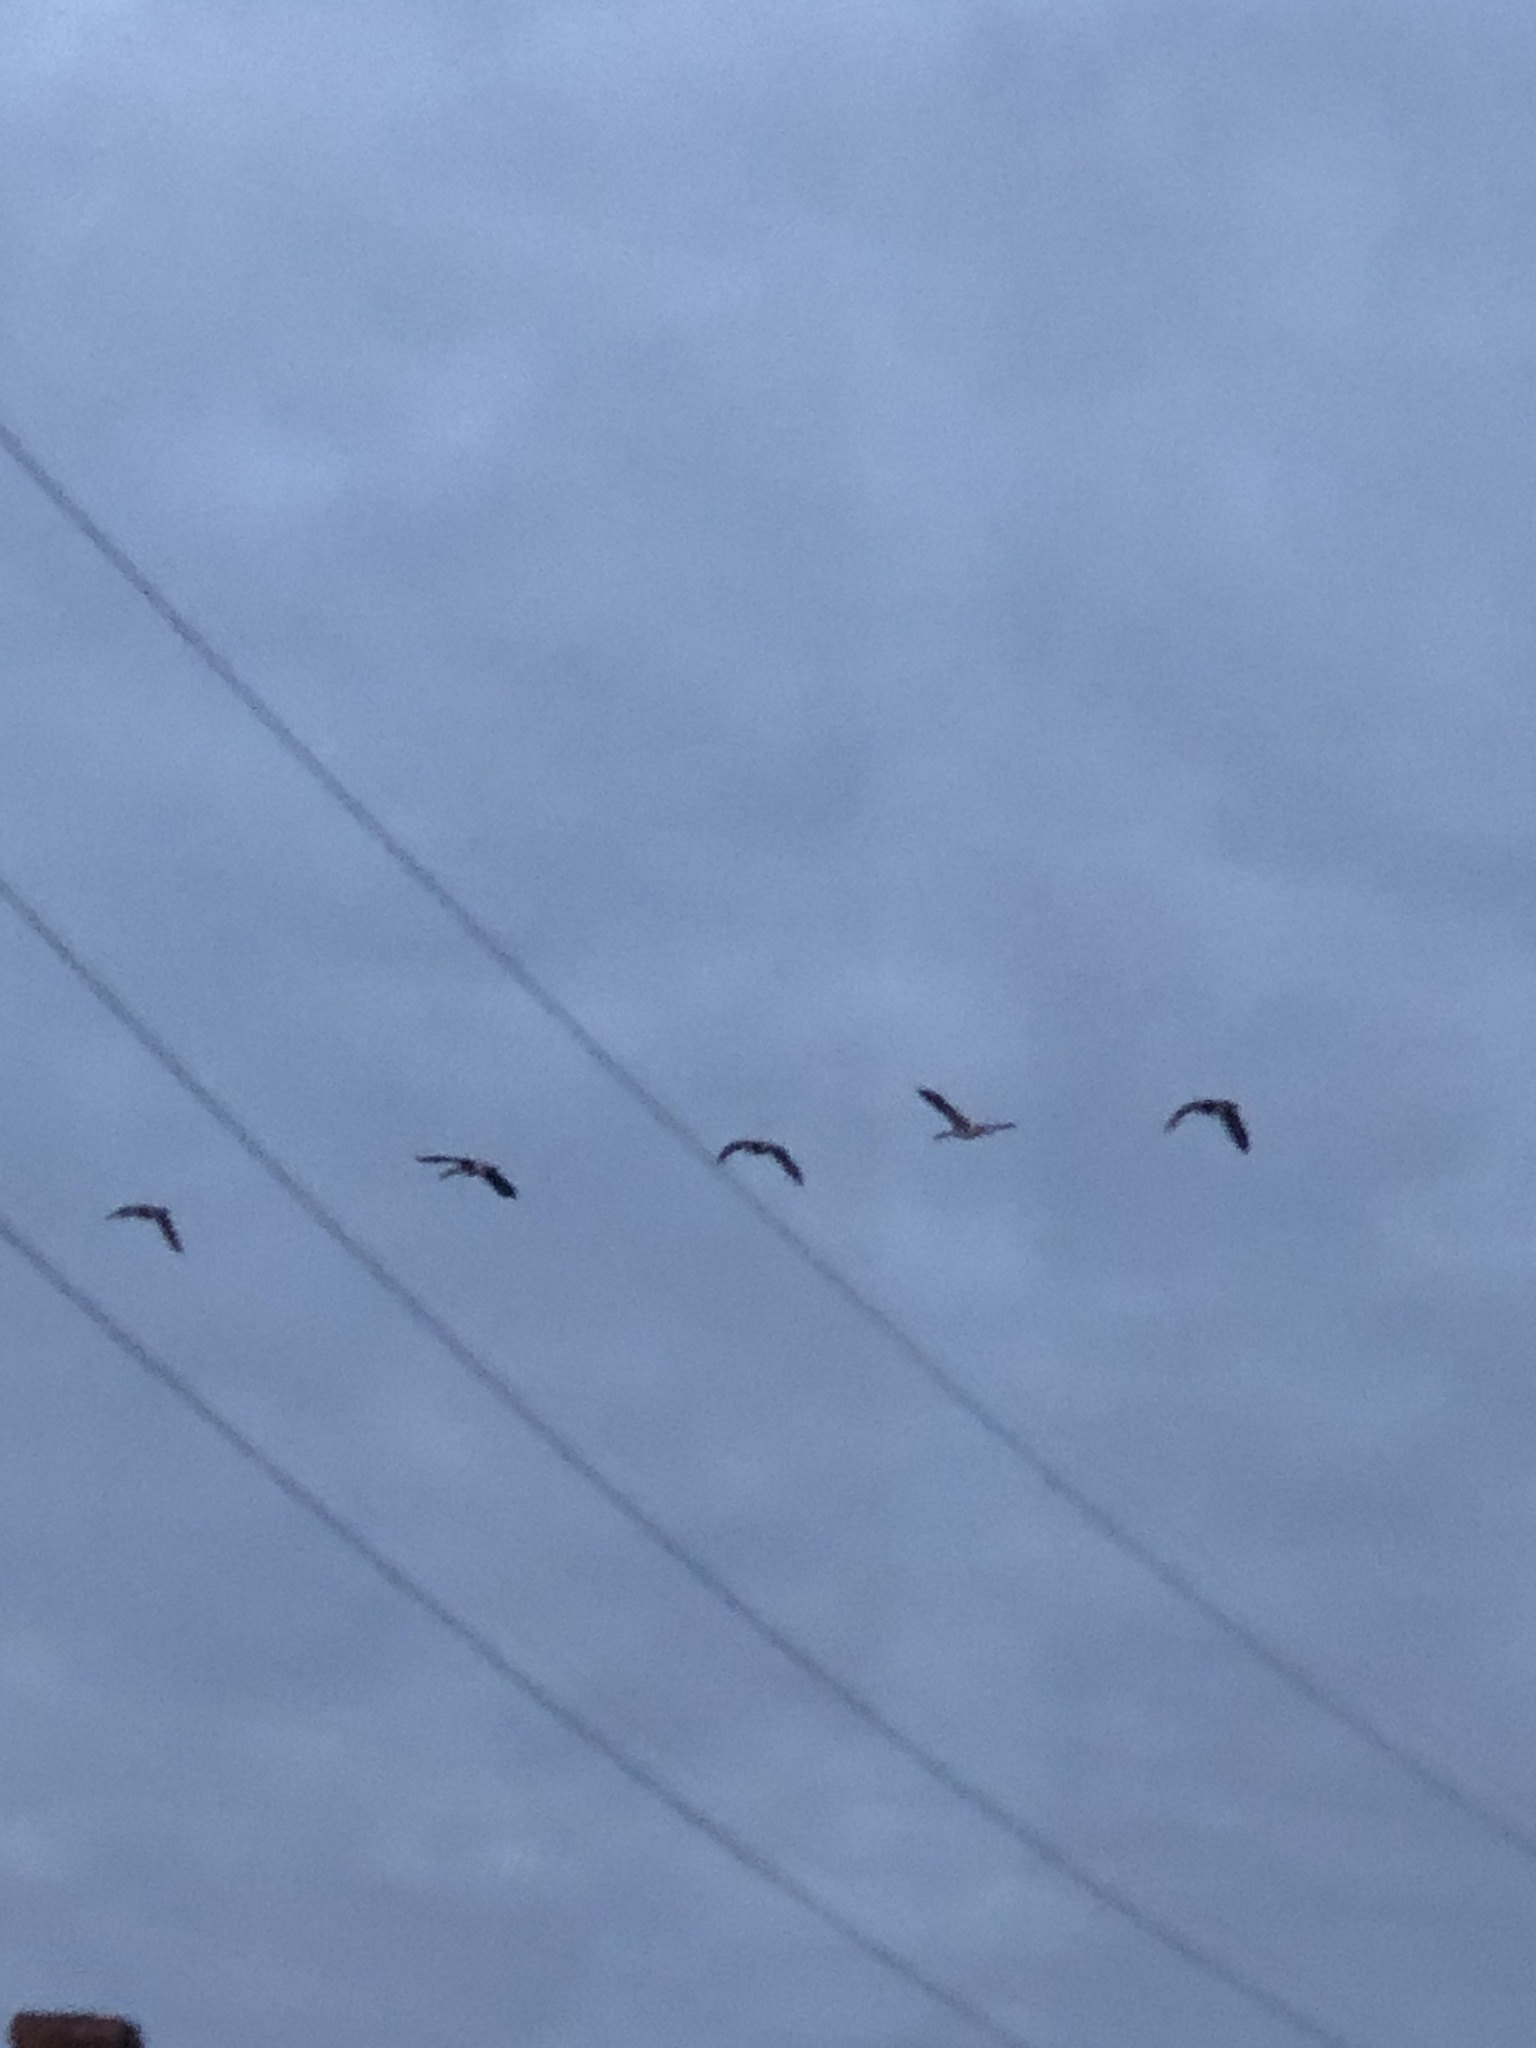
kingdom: Animalia
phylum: Chordata
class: Aves
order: Anseriformes
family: Anatidae
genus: Branta
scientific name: Branta canadensis
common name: Canada goose
